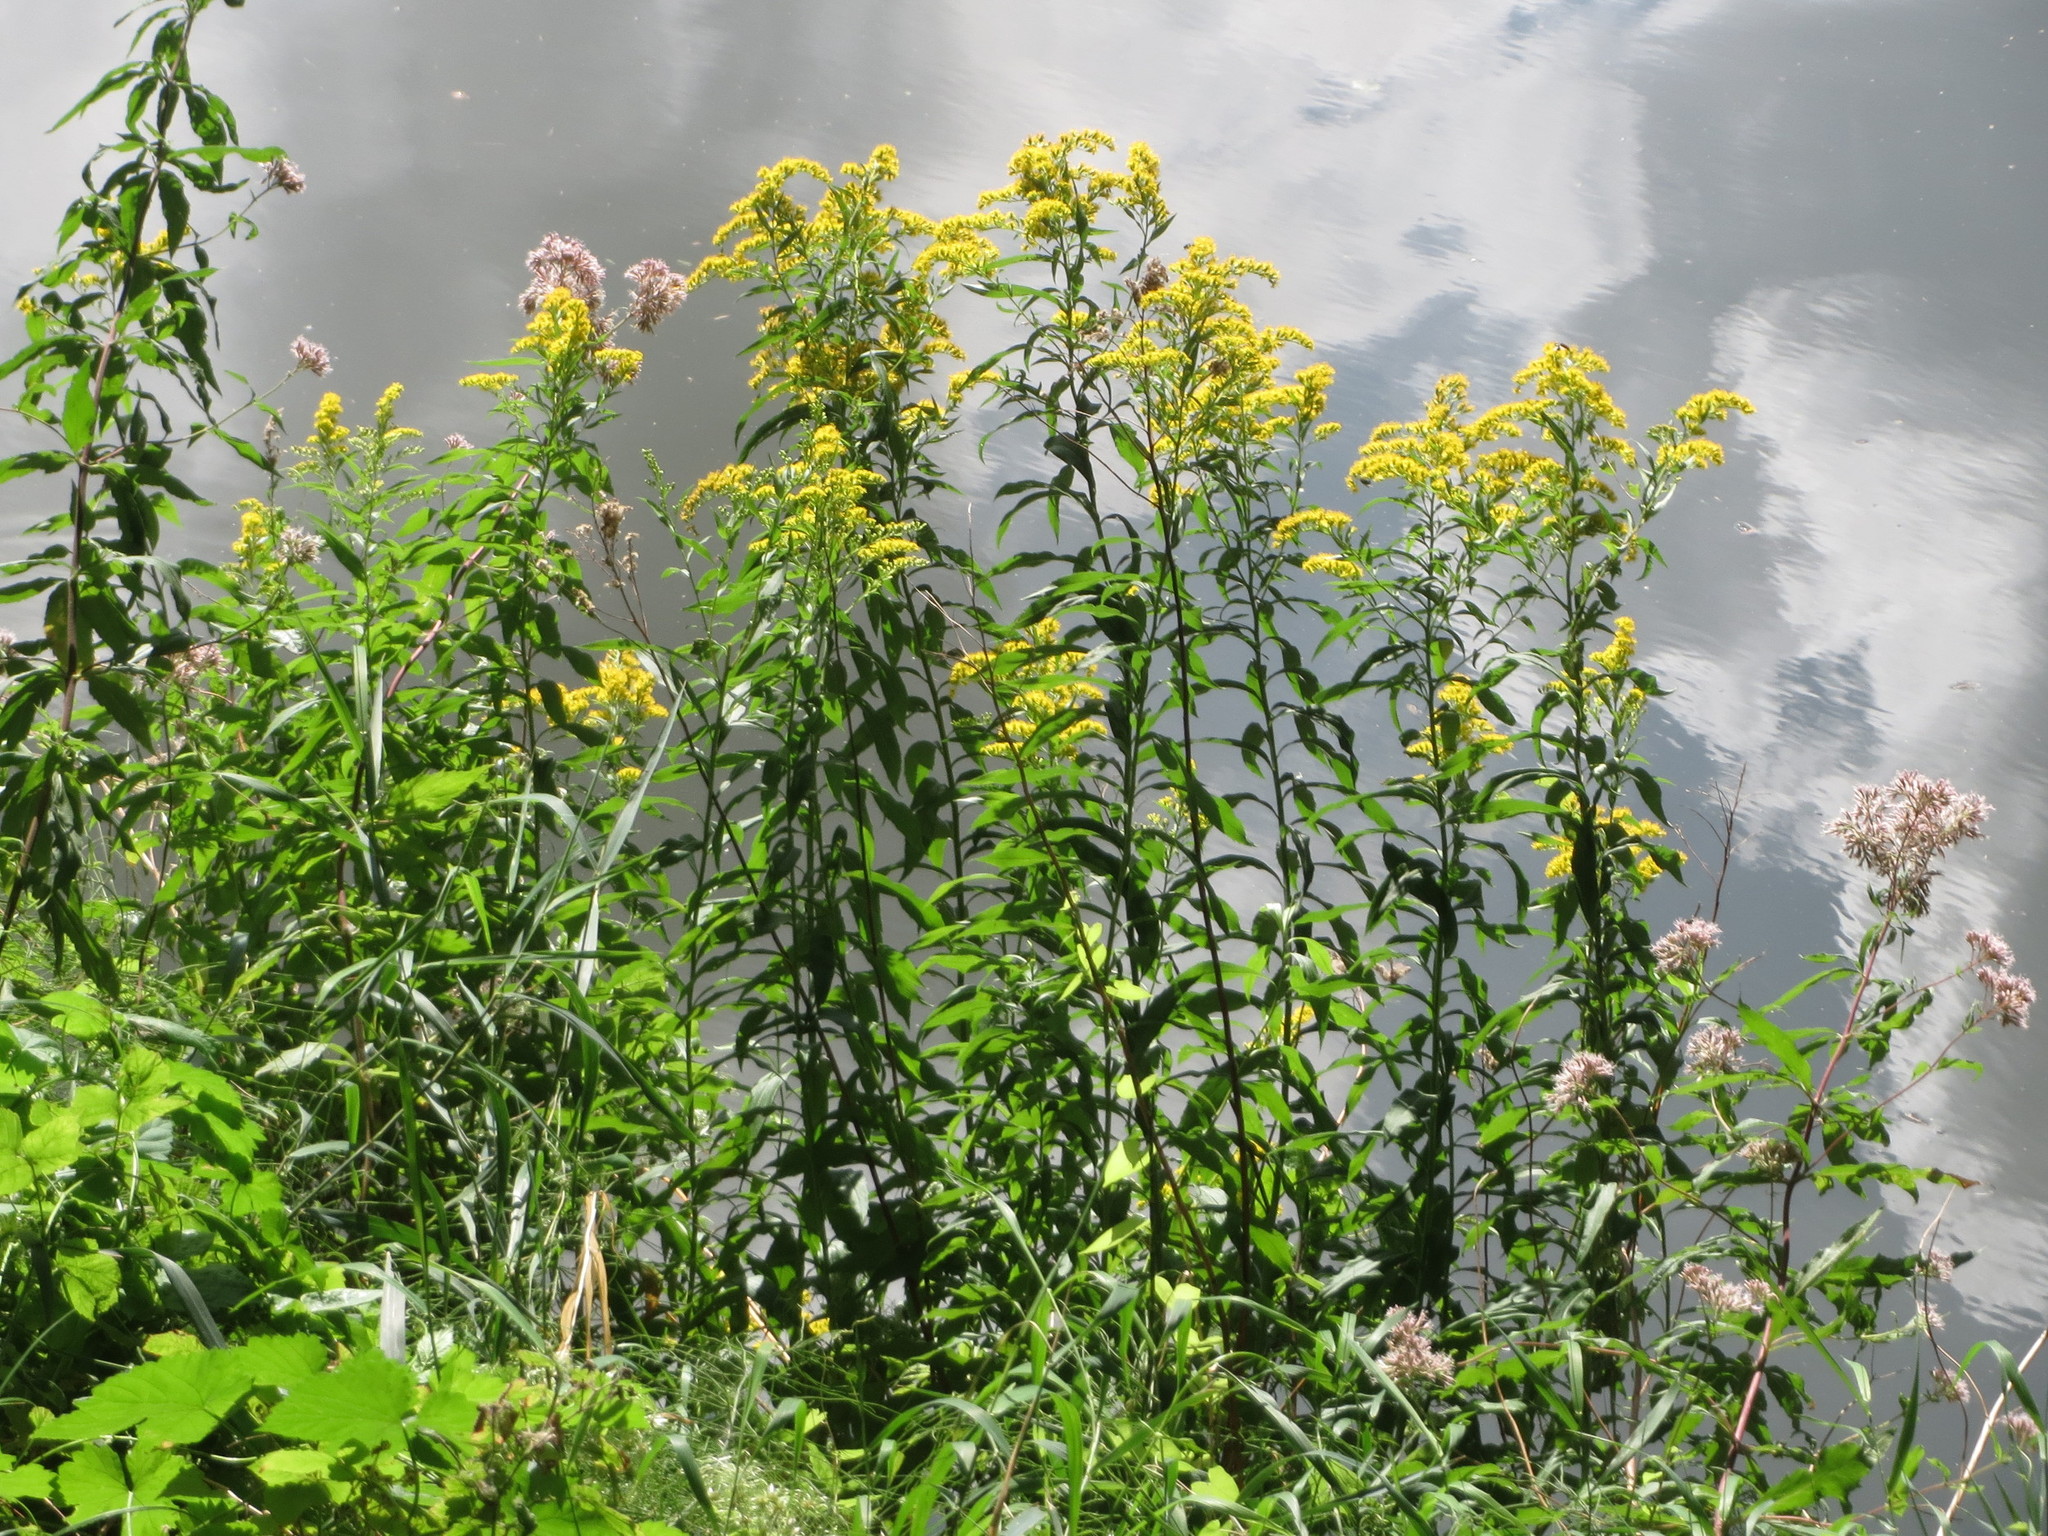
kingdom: Plantae
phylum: Tracheophyta
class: Magnoliopsida
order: Asterales
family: Asteraceae
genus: Solidago
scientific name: Solidago canadensis
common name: Canada goldenrod
